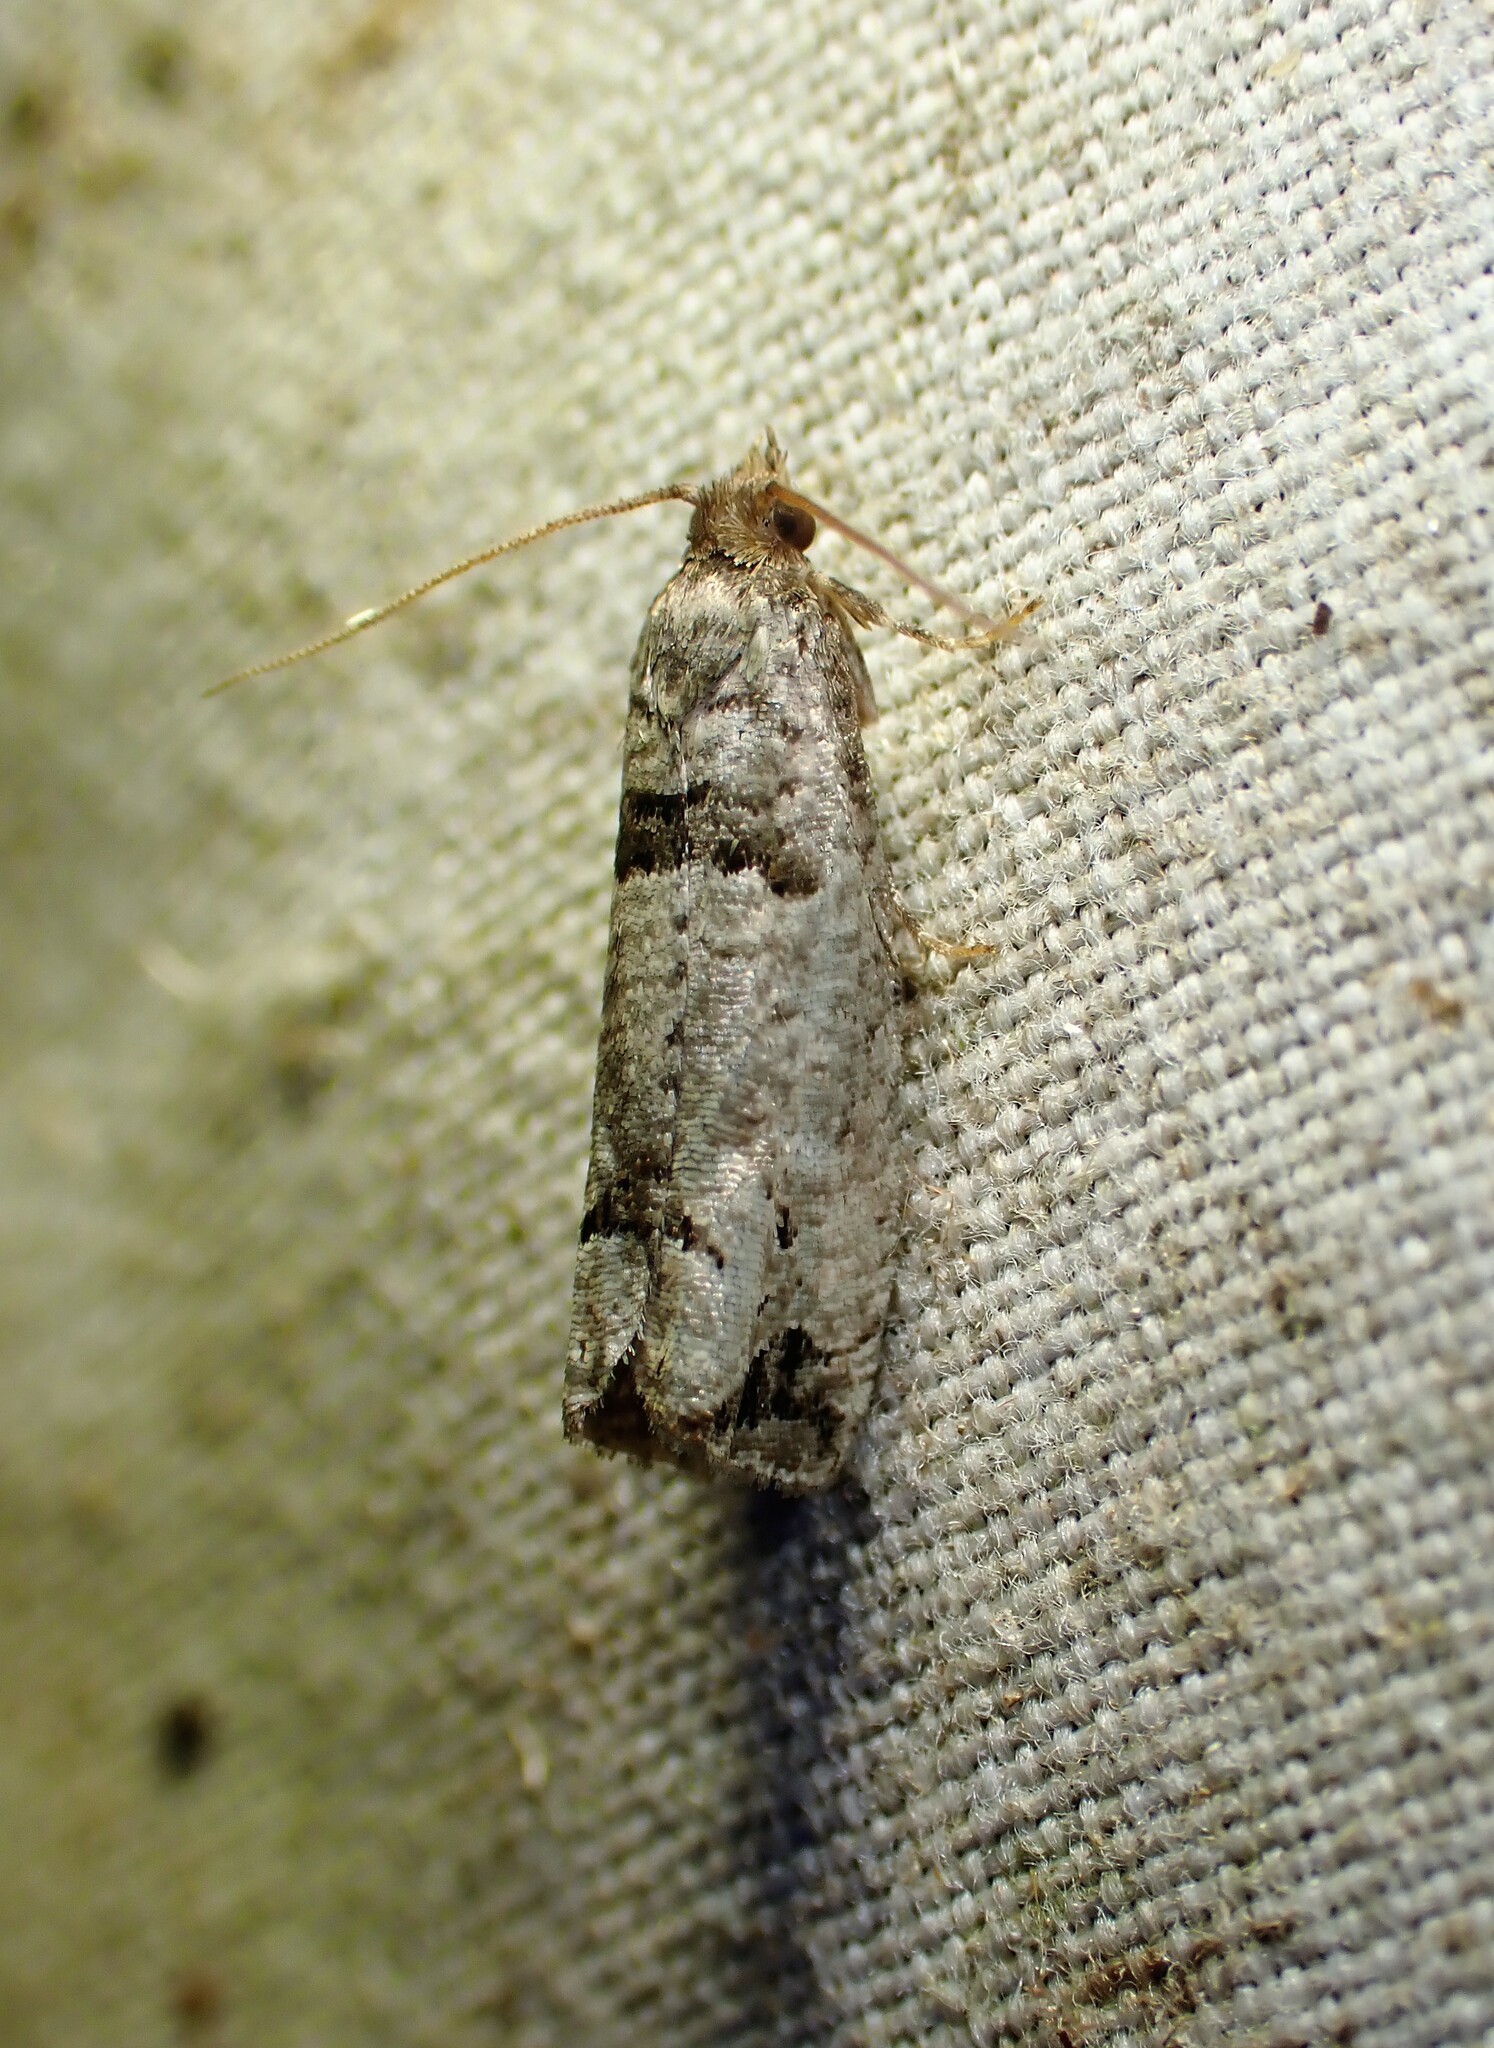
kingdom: Animalia
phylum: Arthropoda
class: Insecta
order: Lepidoptera
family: Tortricidae
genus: Notocelia
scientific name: Notocelia culminana
